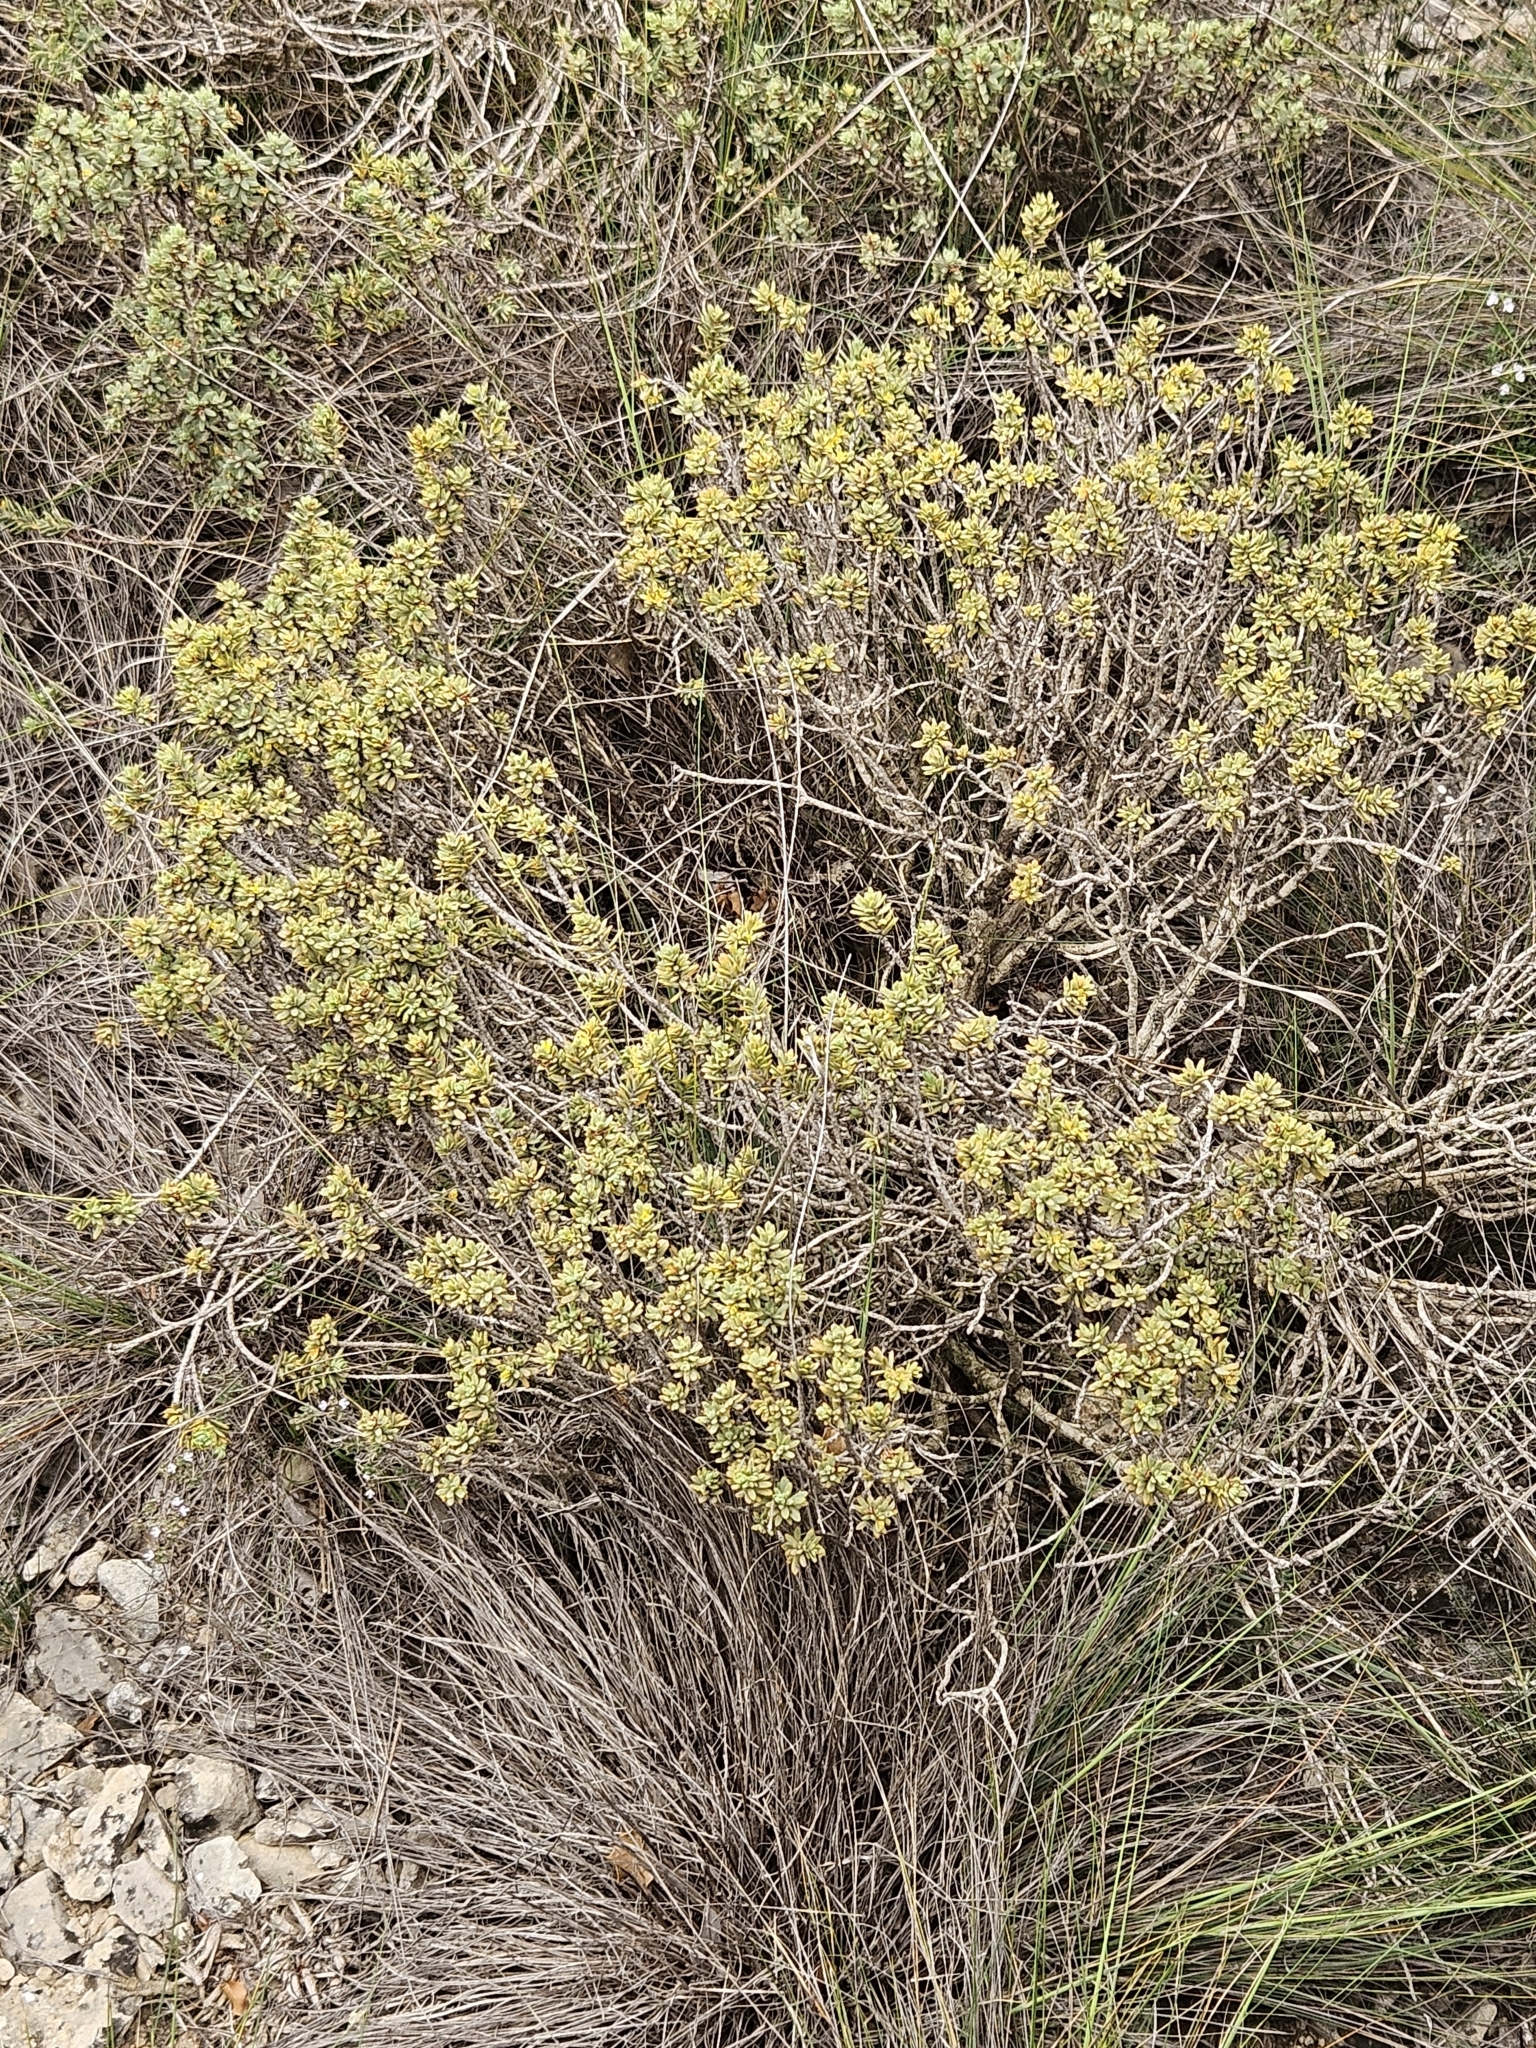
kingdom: Plantae
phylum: Tracheophyta
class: Magnoliopsida
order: Malvales
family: Thymelaeaceae
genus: Thymelaea
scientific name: Thymelaea tinctoria
